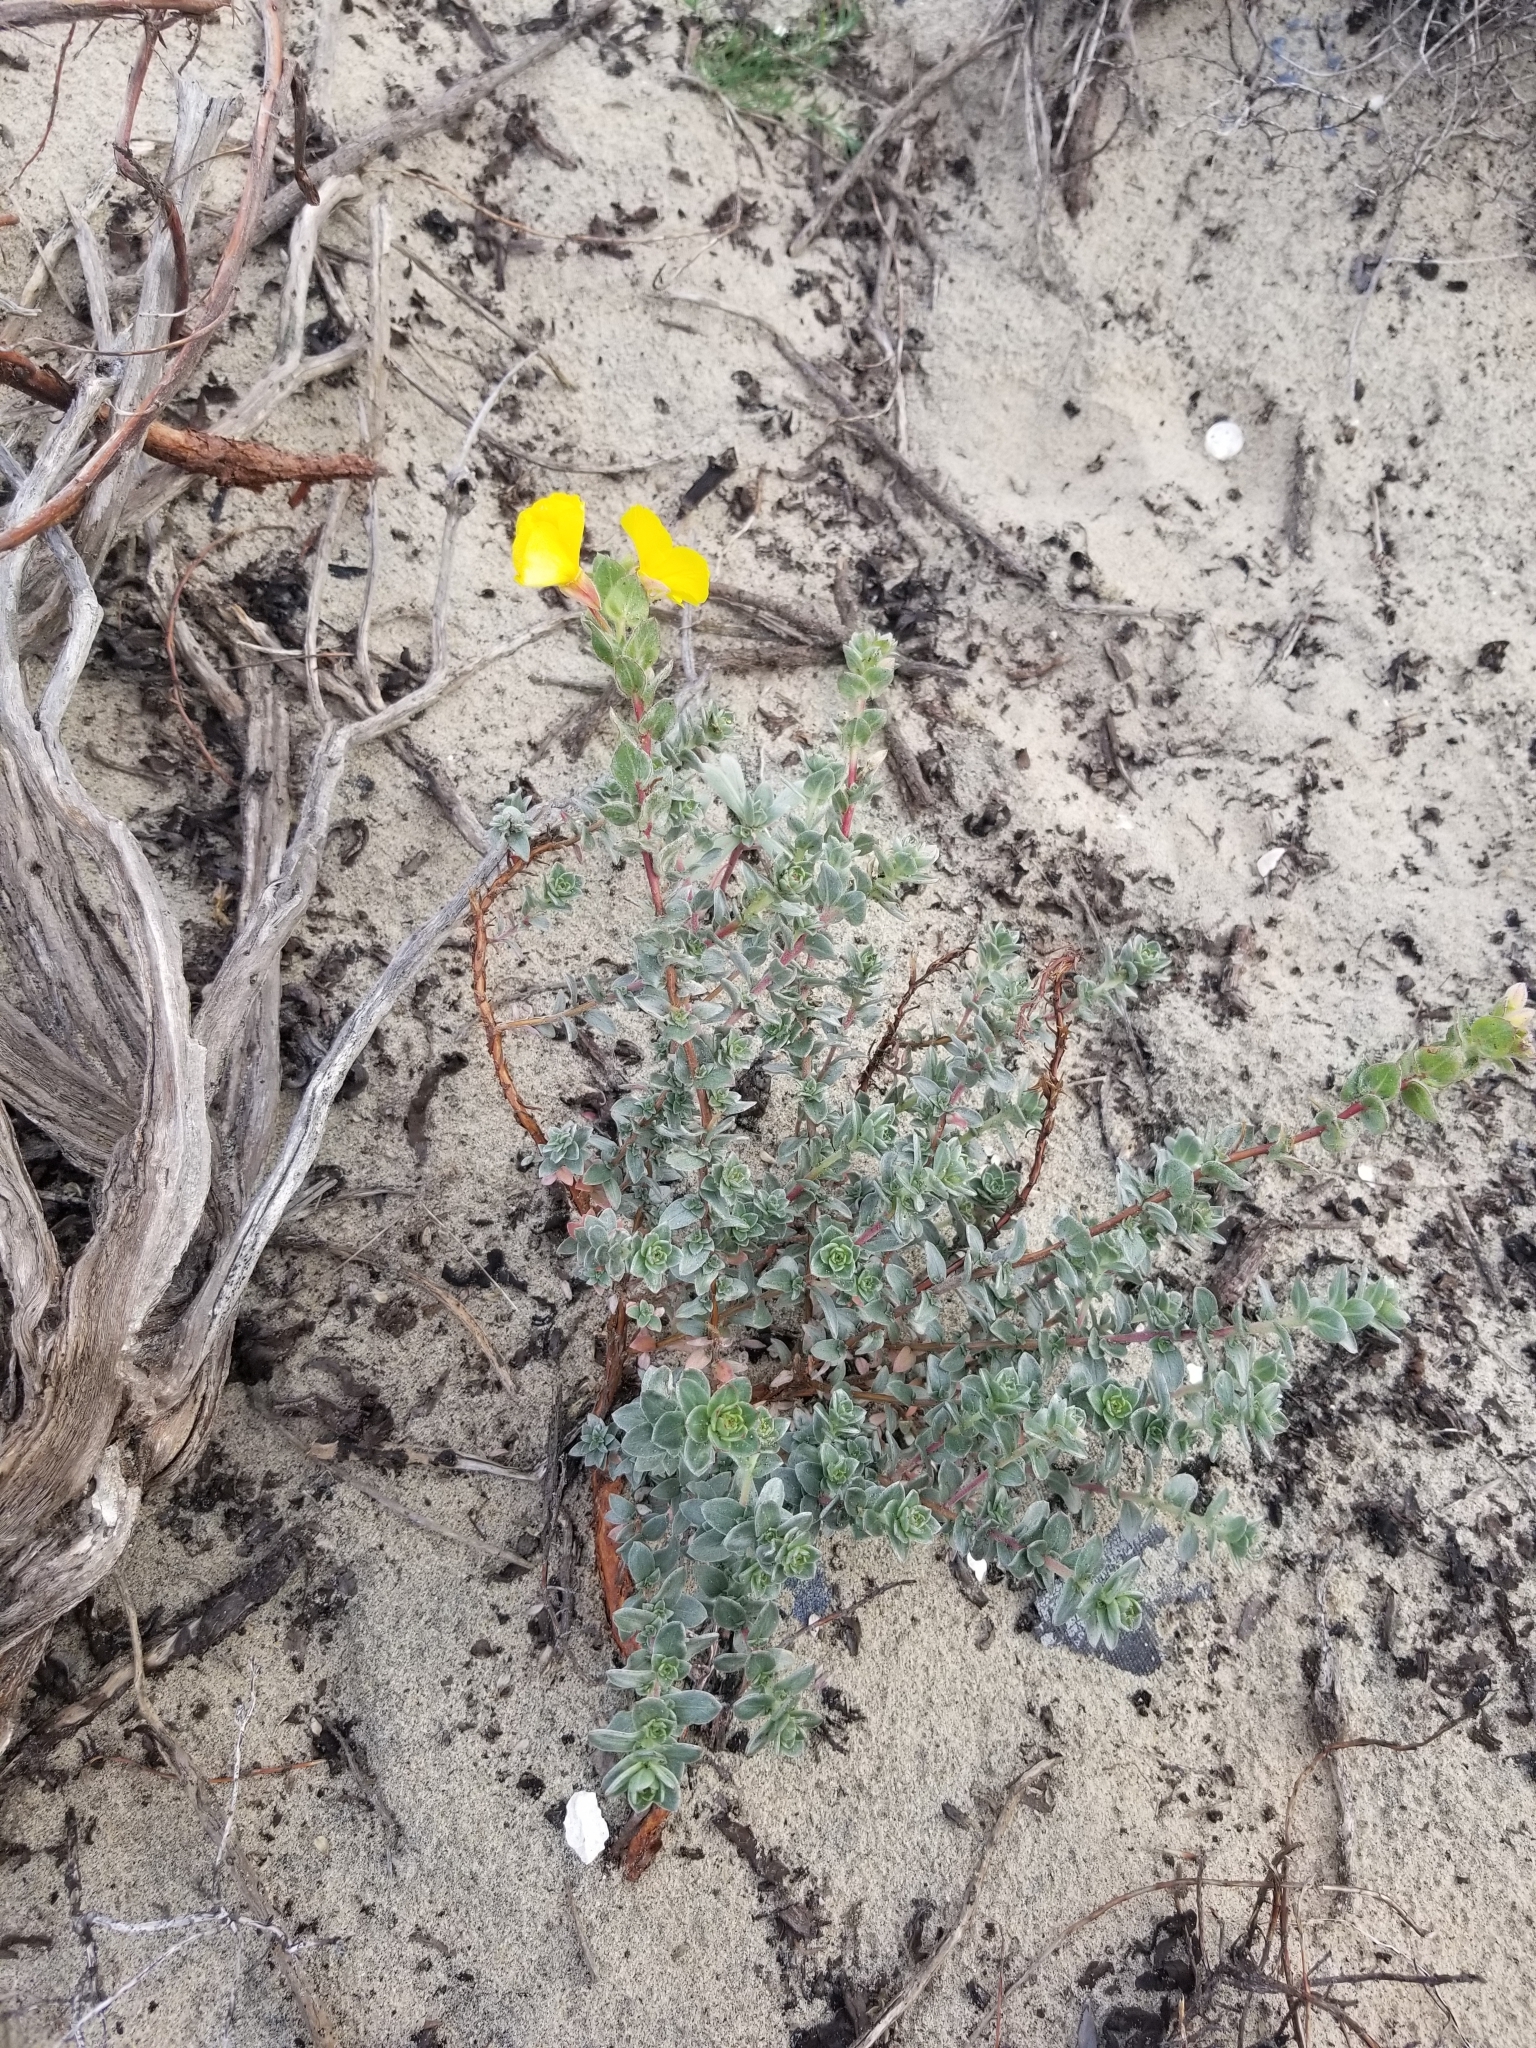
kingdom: Plantae
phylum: Tracheophyta
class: Magnoliopsida
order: Myrtales
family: Onagraceae
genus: Camissoniopsis
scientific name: Camissoniopsis cheiranthifolia
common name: Beach suncup
